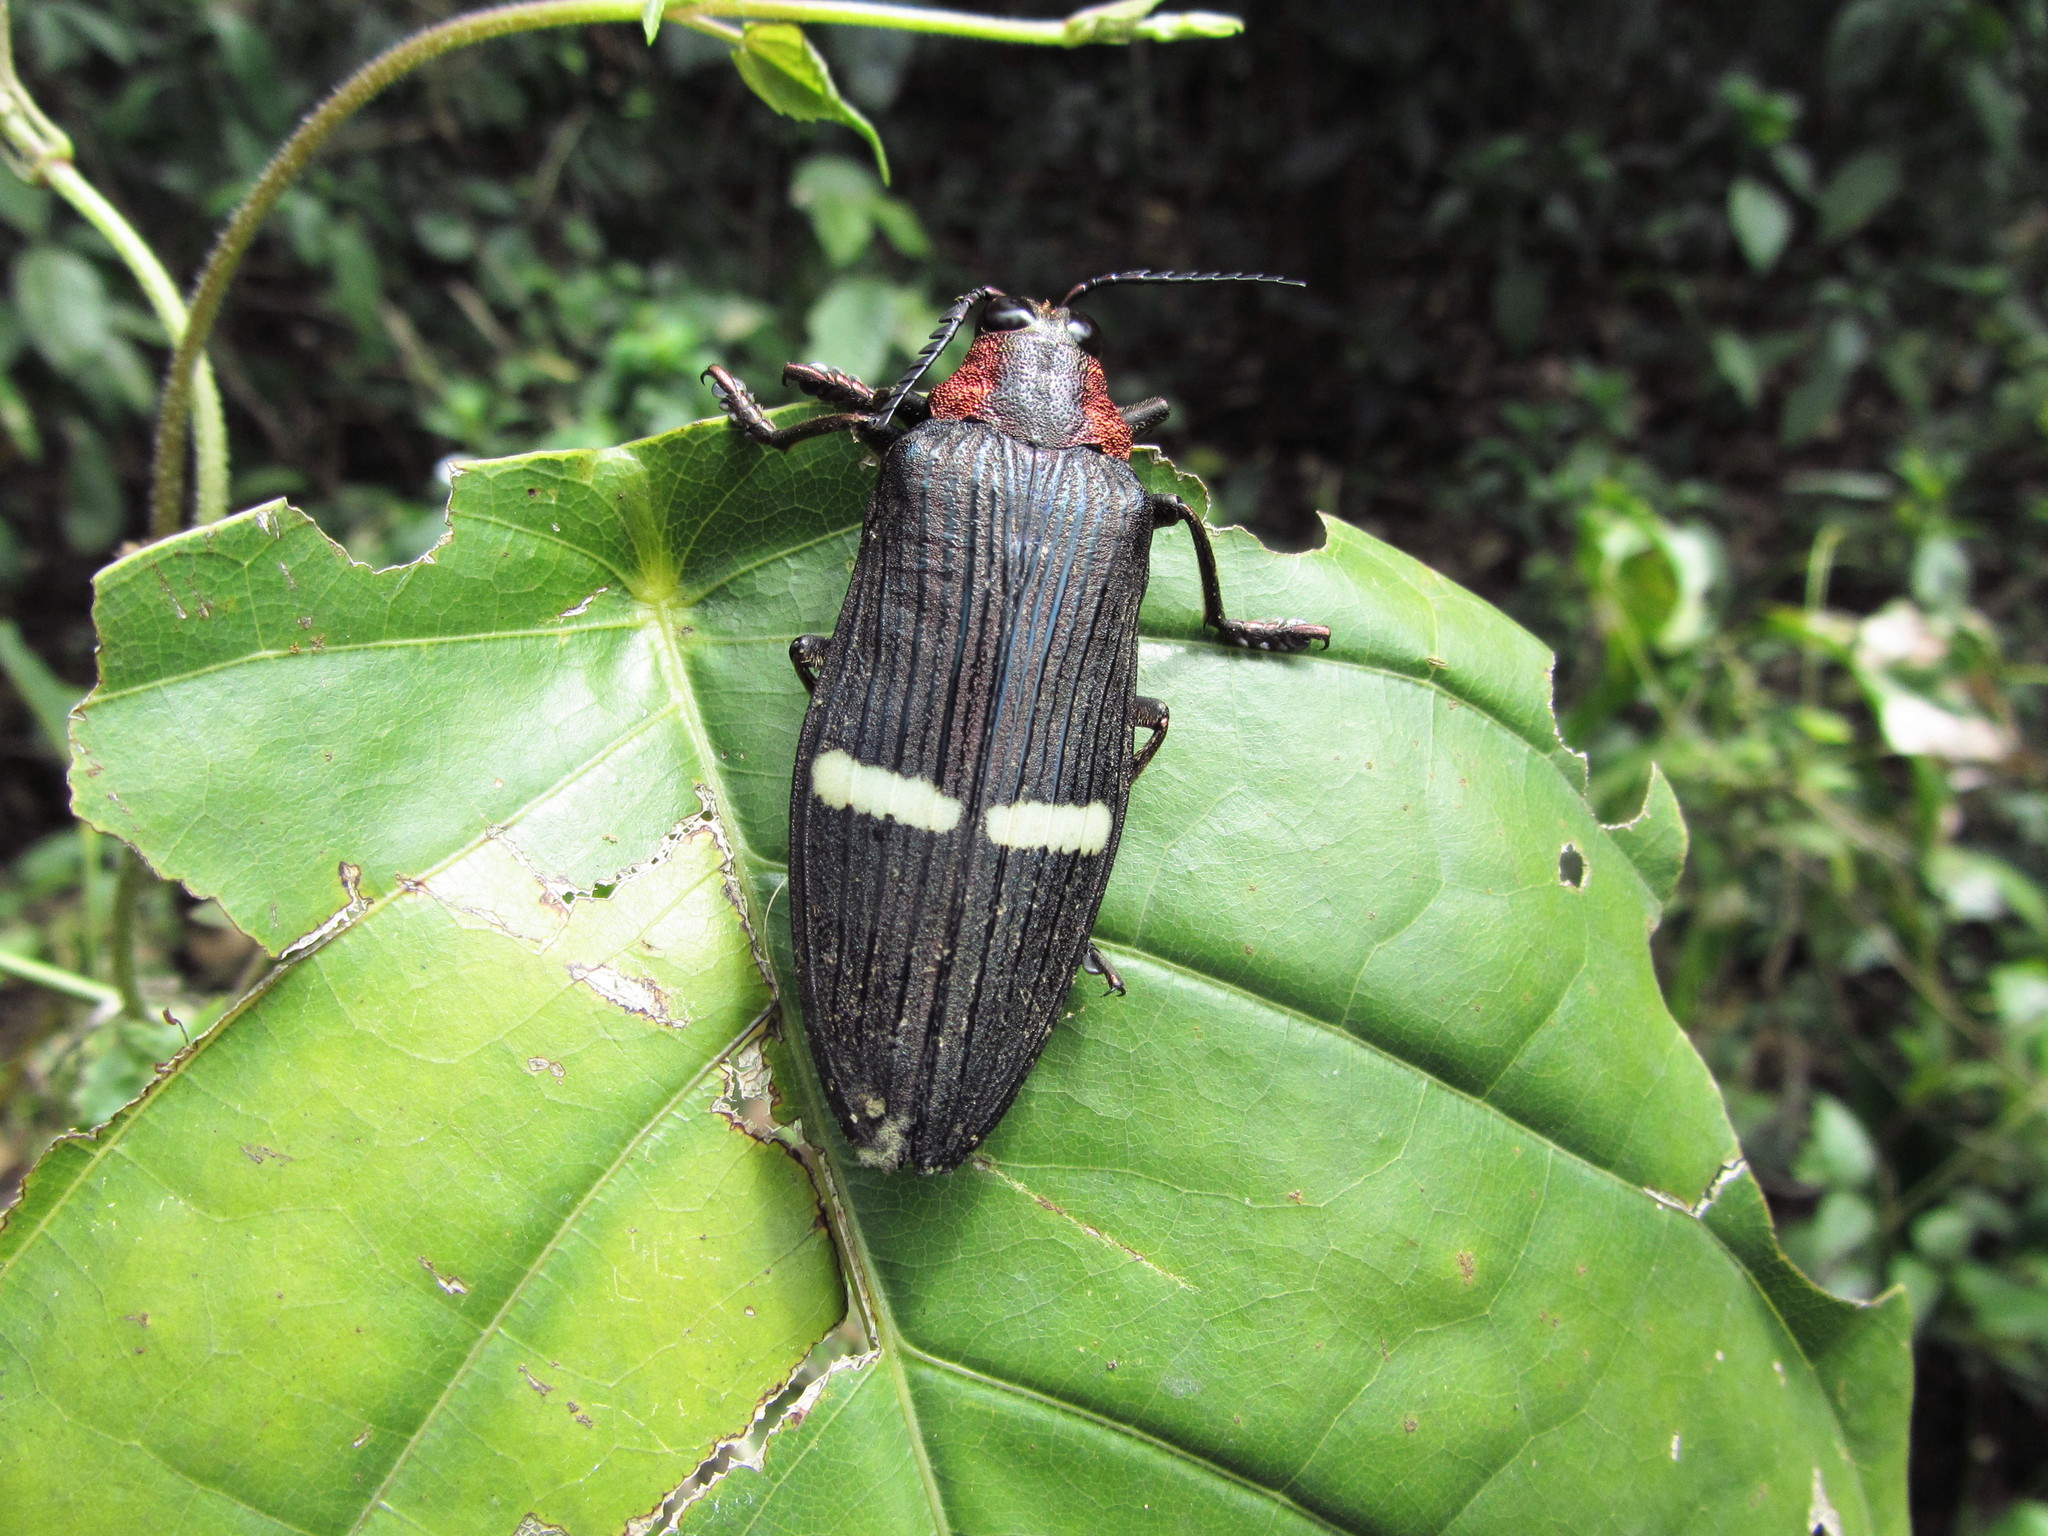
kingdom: Animalia
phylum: Arthropoda
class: Insecta
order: Coleoptera
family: Buprestidae
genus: Catoxantha
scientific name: Catoxantha opulenta
